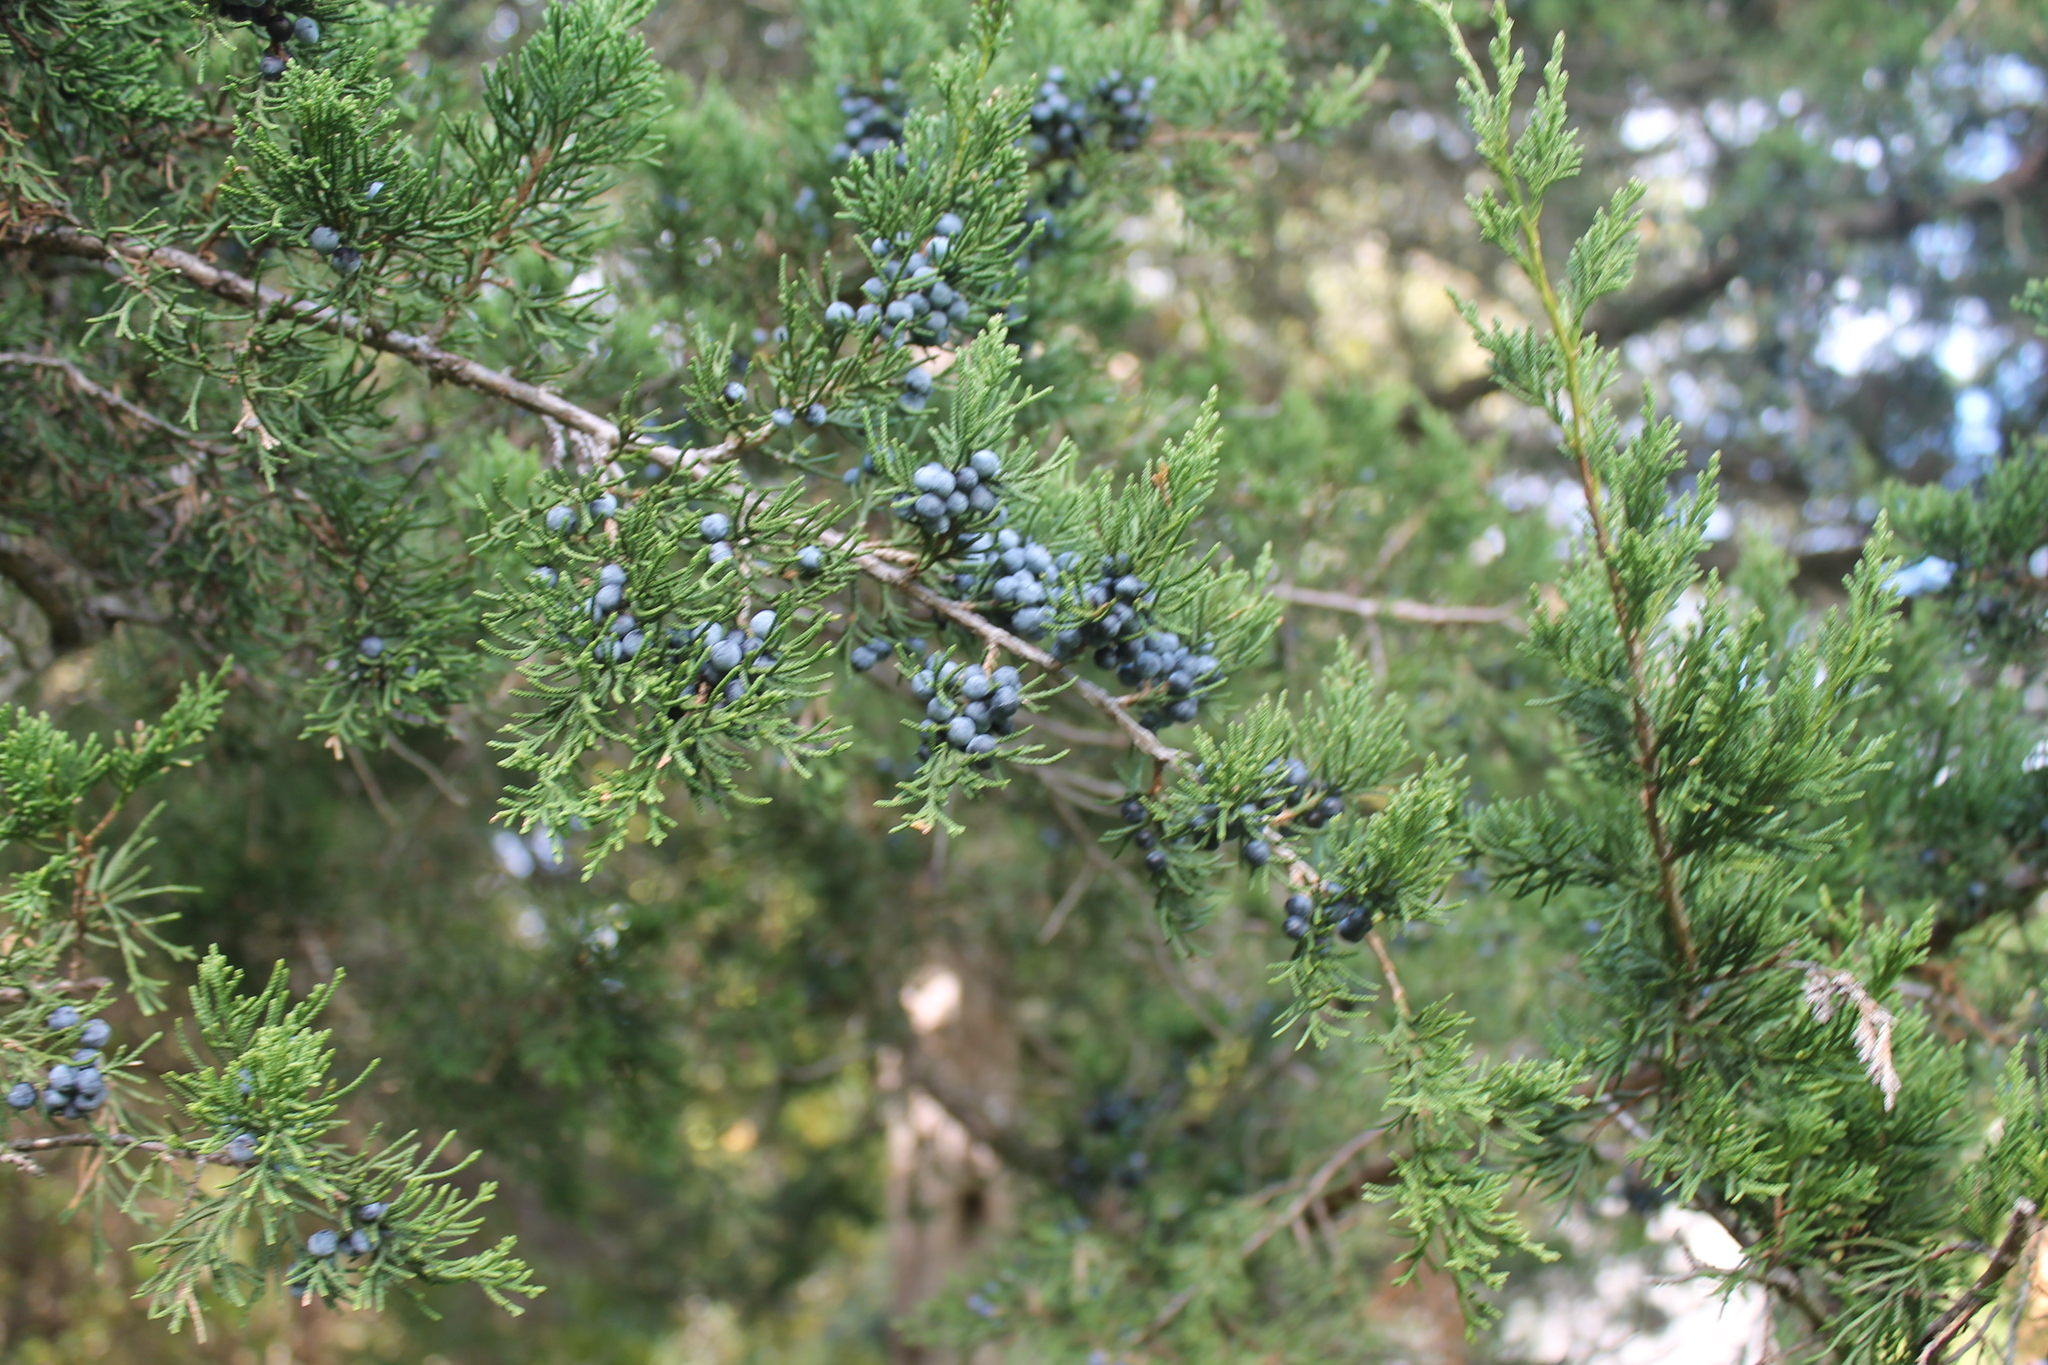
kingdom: Plantae
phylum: Tracheophyta
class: Pinopsida
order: Pinales
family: Cupressaceae
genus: Juniperus
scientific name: Juniperus virginiana
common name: Red juniper
